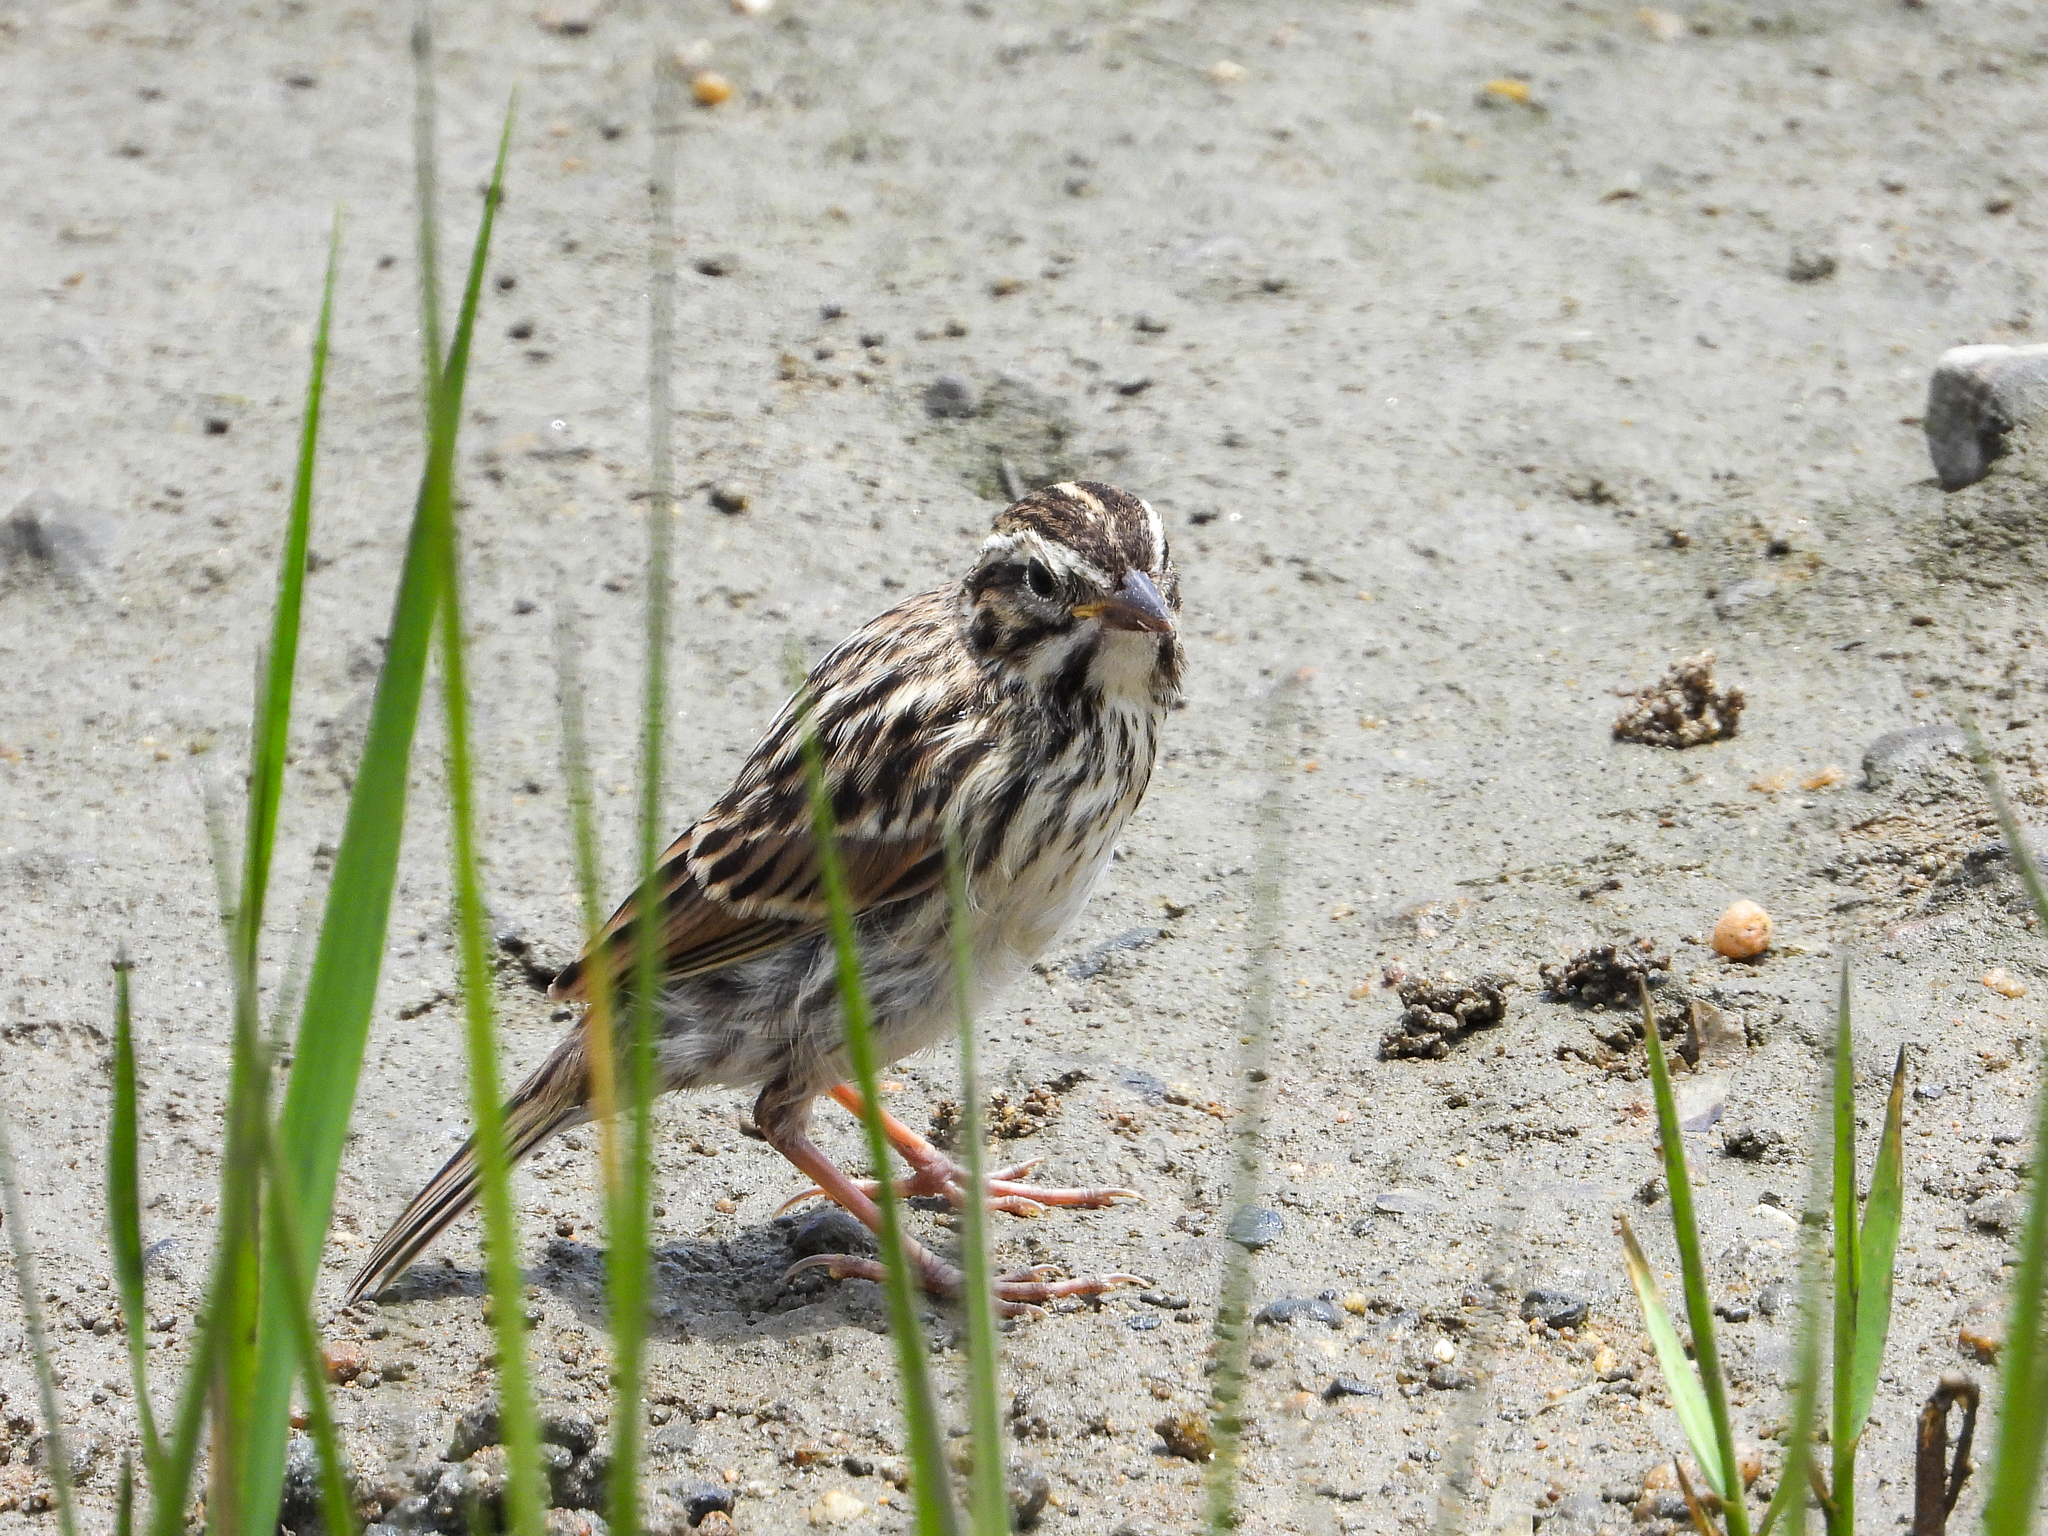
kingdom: Animalia
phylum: Chordata
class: Aves
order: Passeriformes
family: Passerellidae
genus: Passerculus
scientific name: Passerculus sandwichensis
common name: Savannah sparrow
